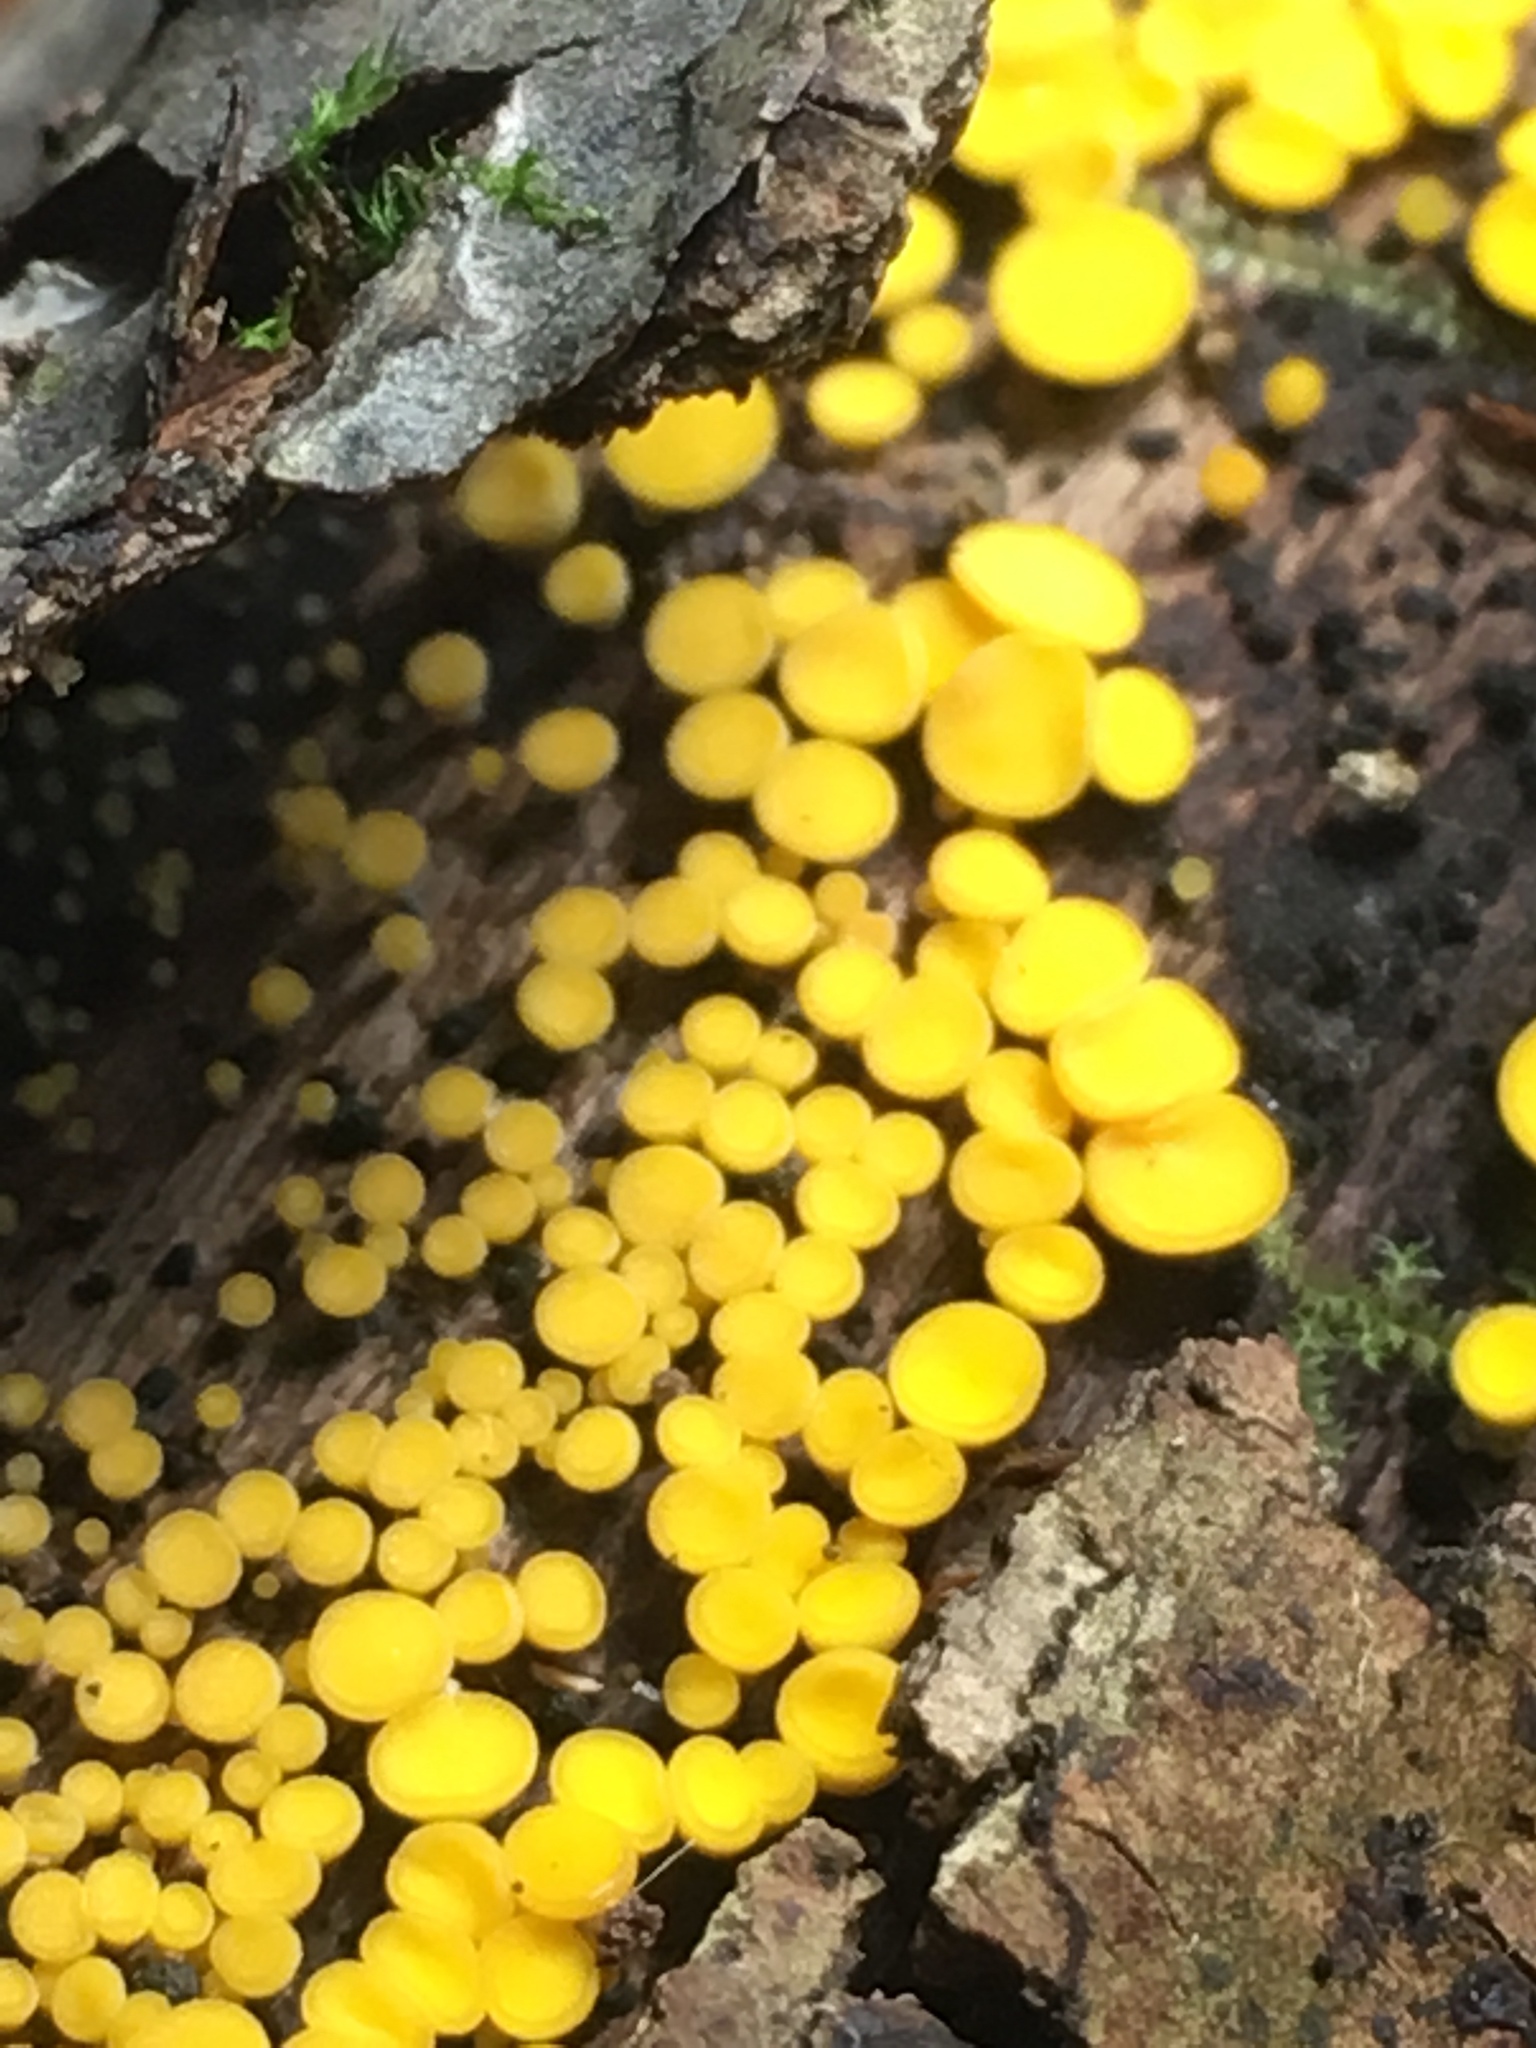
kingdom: Fungi
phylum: Ascomycota
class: Leotiomycetes
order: Helotiales
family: Pezizellaceae
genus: Calycina
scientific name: Calycina citrina
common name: Yellow fairy cups
